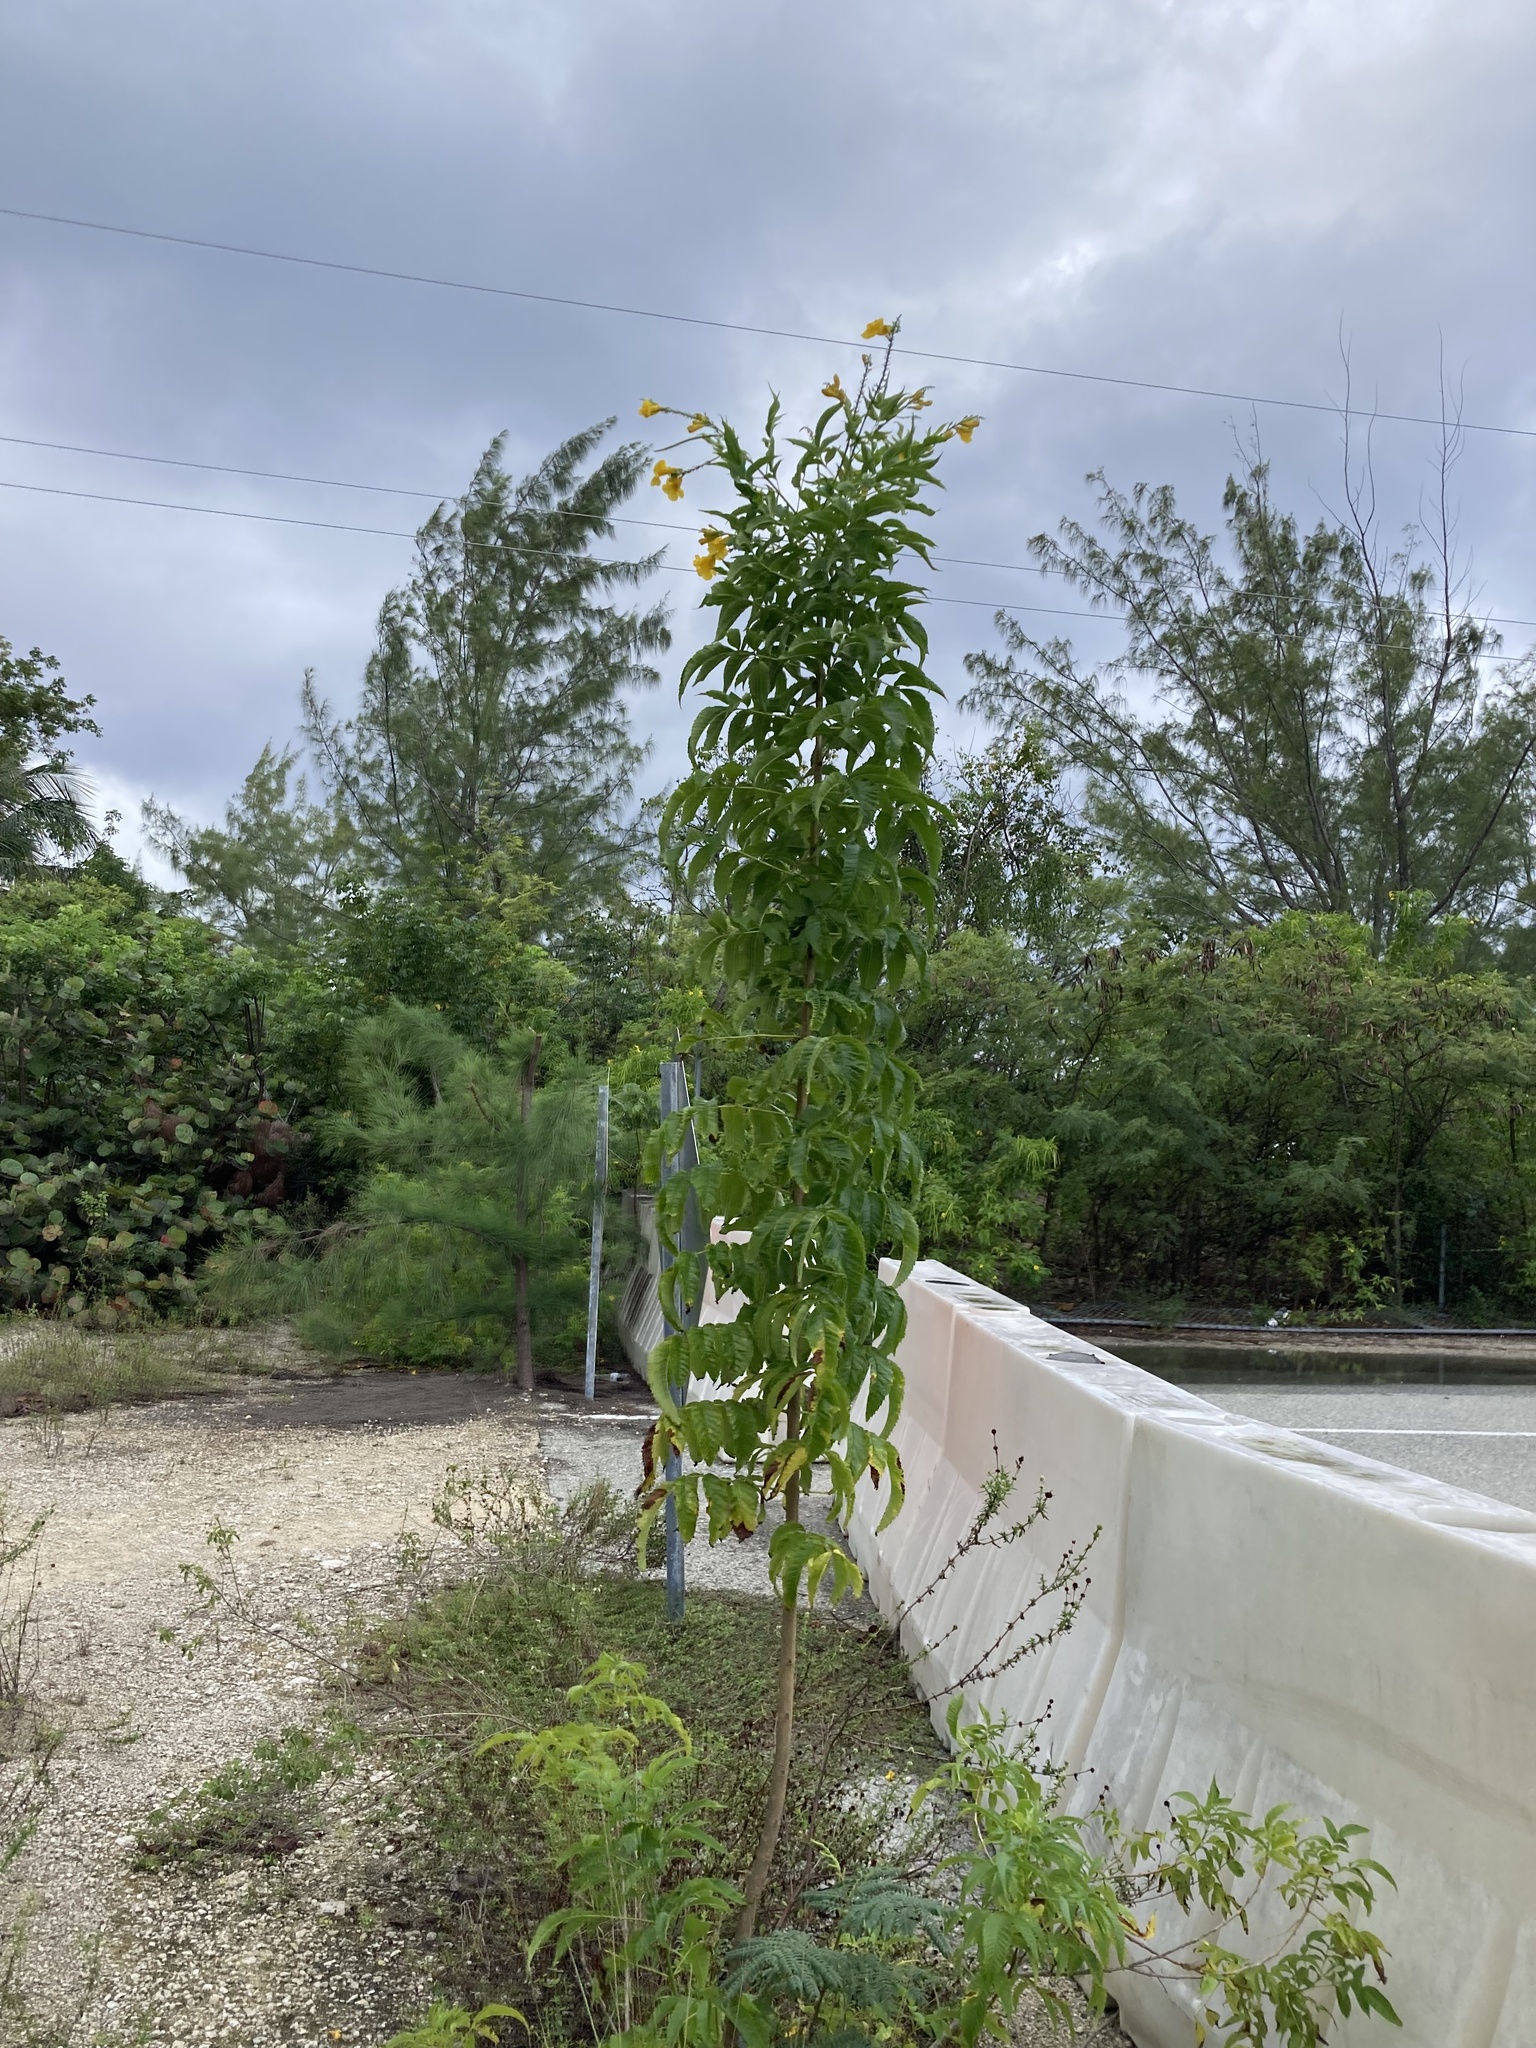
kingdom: Plantae
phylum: Tracheophyta
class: Magnoliopsida
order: Lamiales
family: Bignoniaceae
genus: Tecoma
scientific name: Tecoma stans
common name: Yellow trumpetbush
